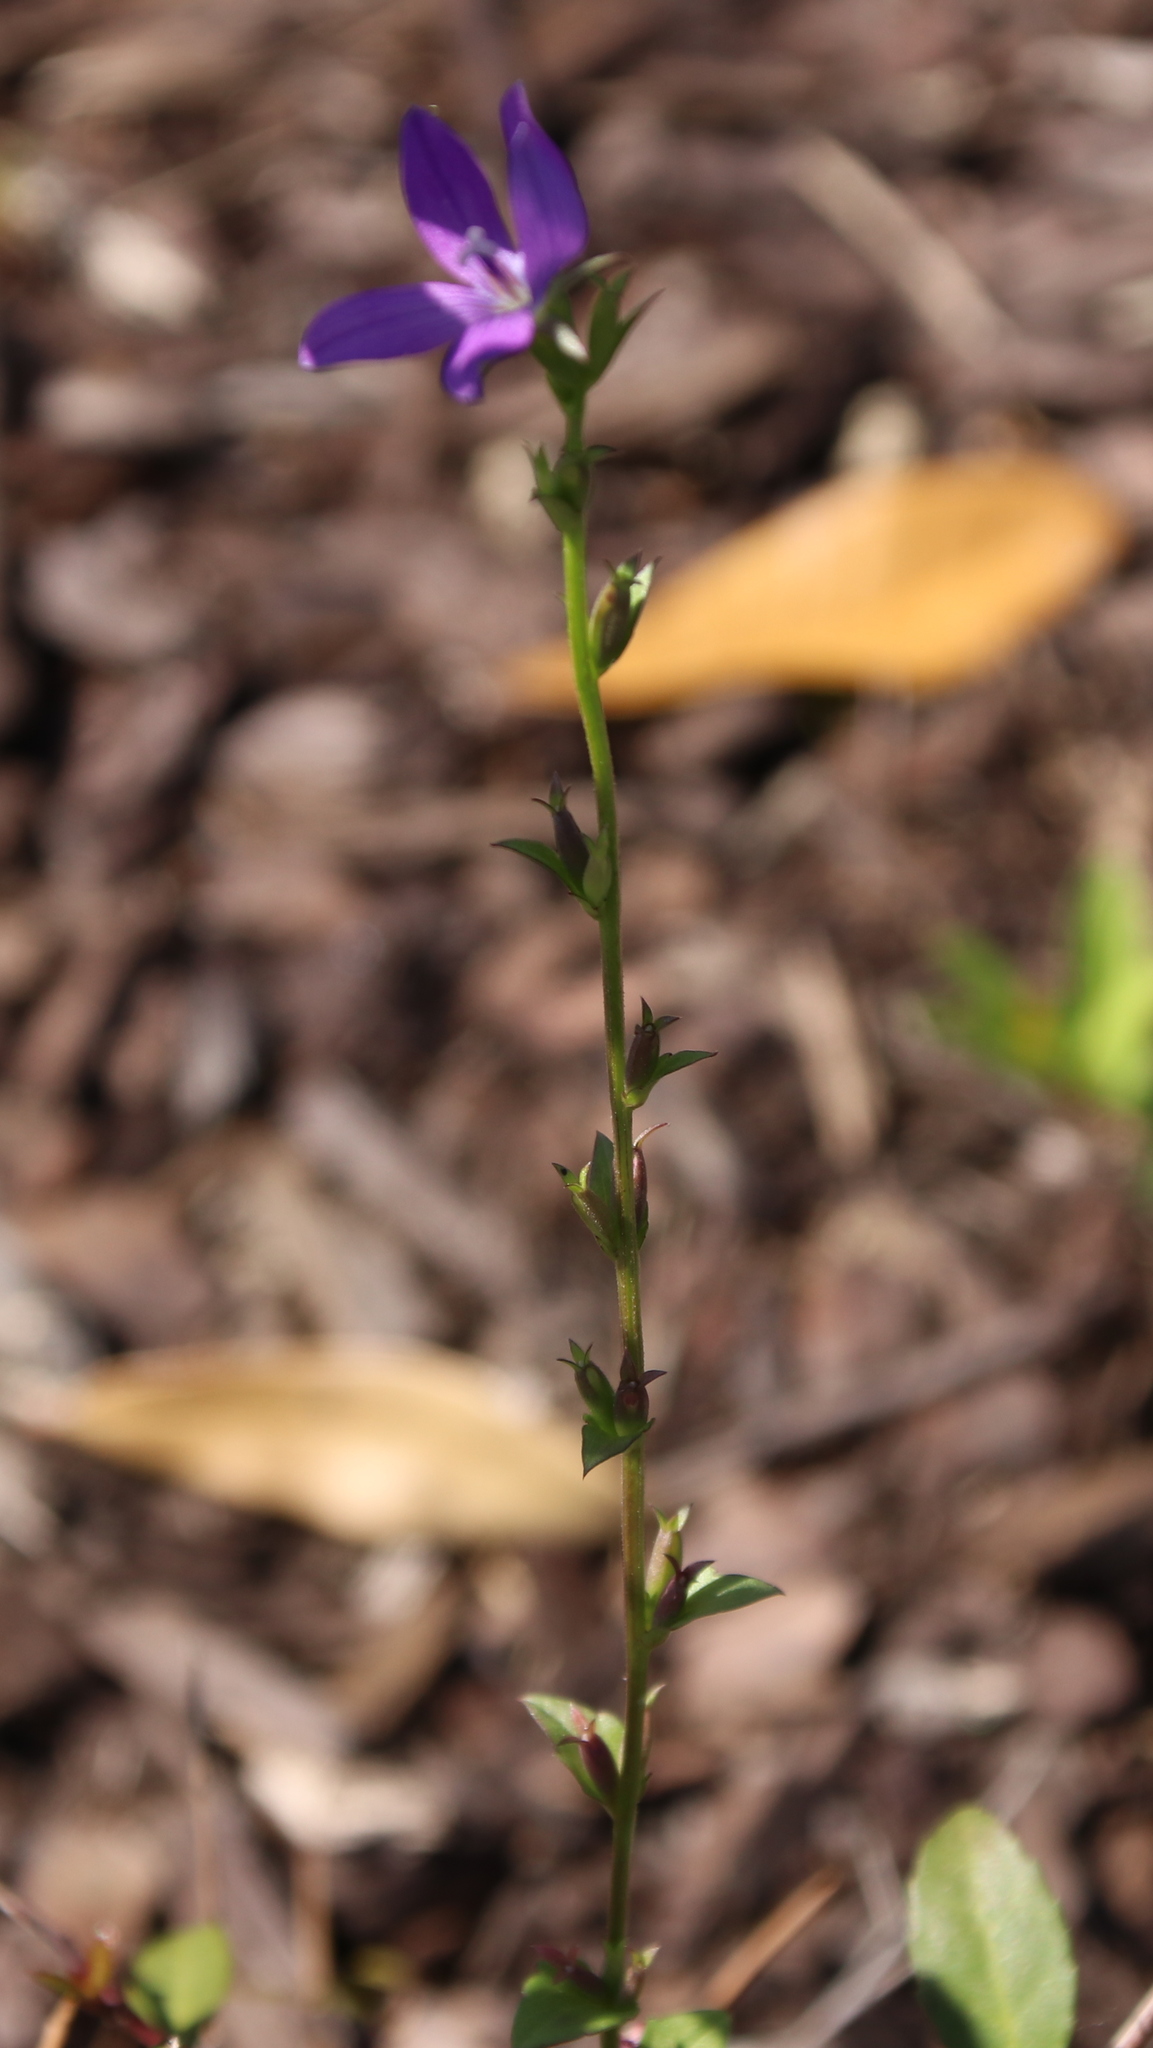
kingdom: Plantae
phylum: Tracheophyta
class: Magnoliopsida
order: Asterales
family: Campanulaceae
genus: Triodanis
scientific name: Triodanis biflora
